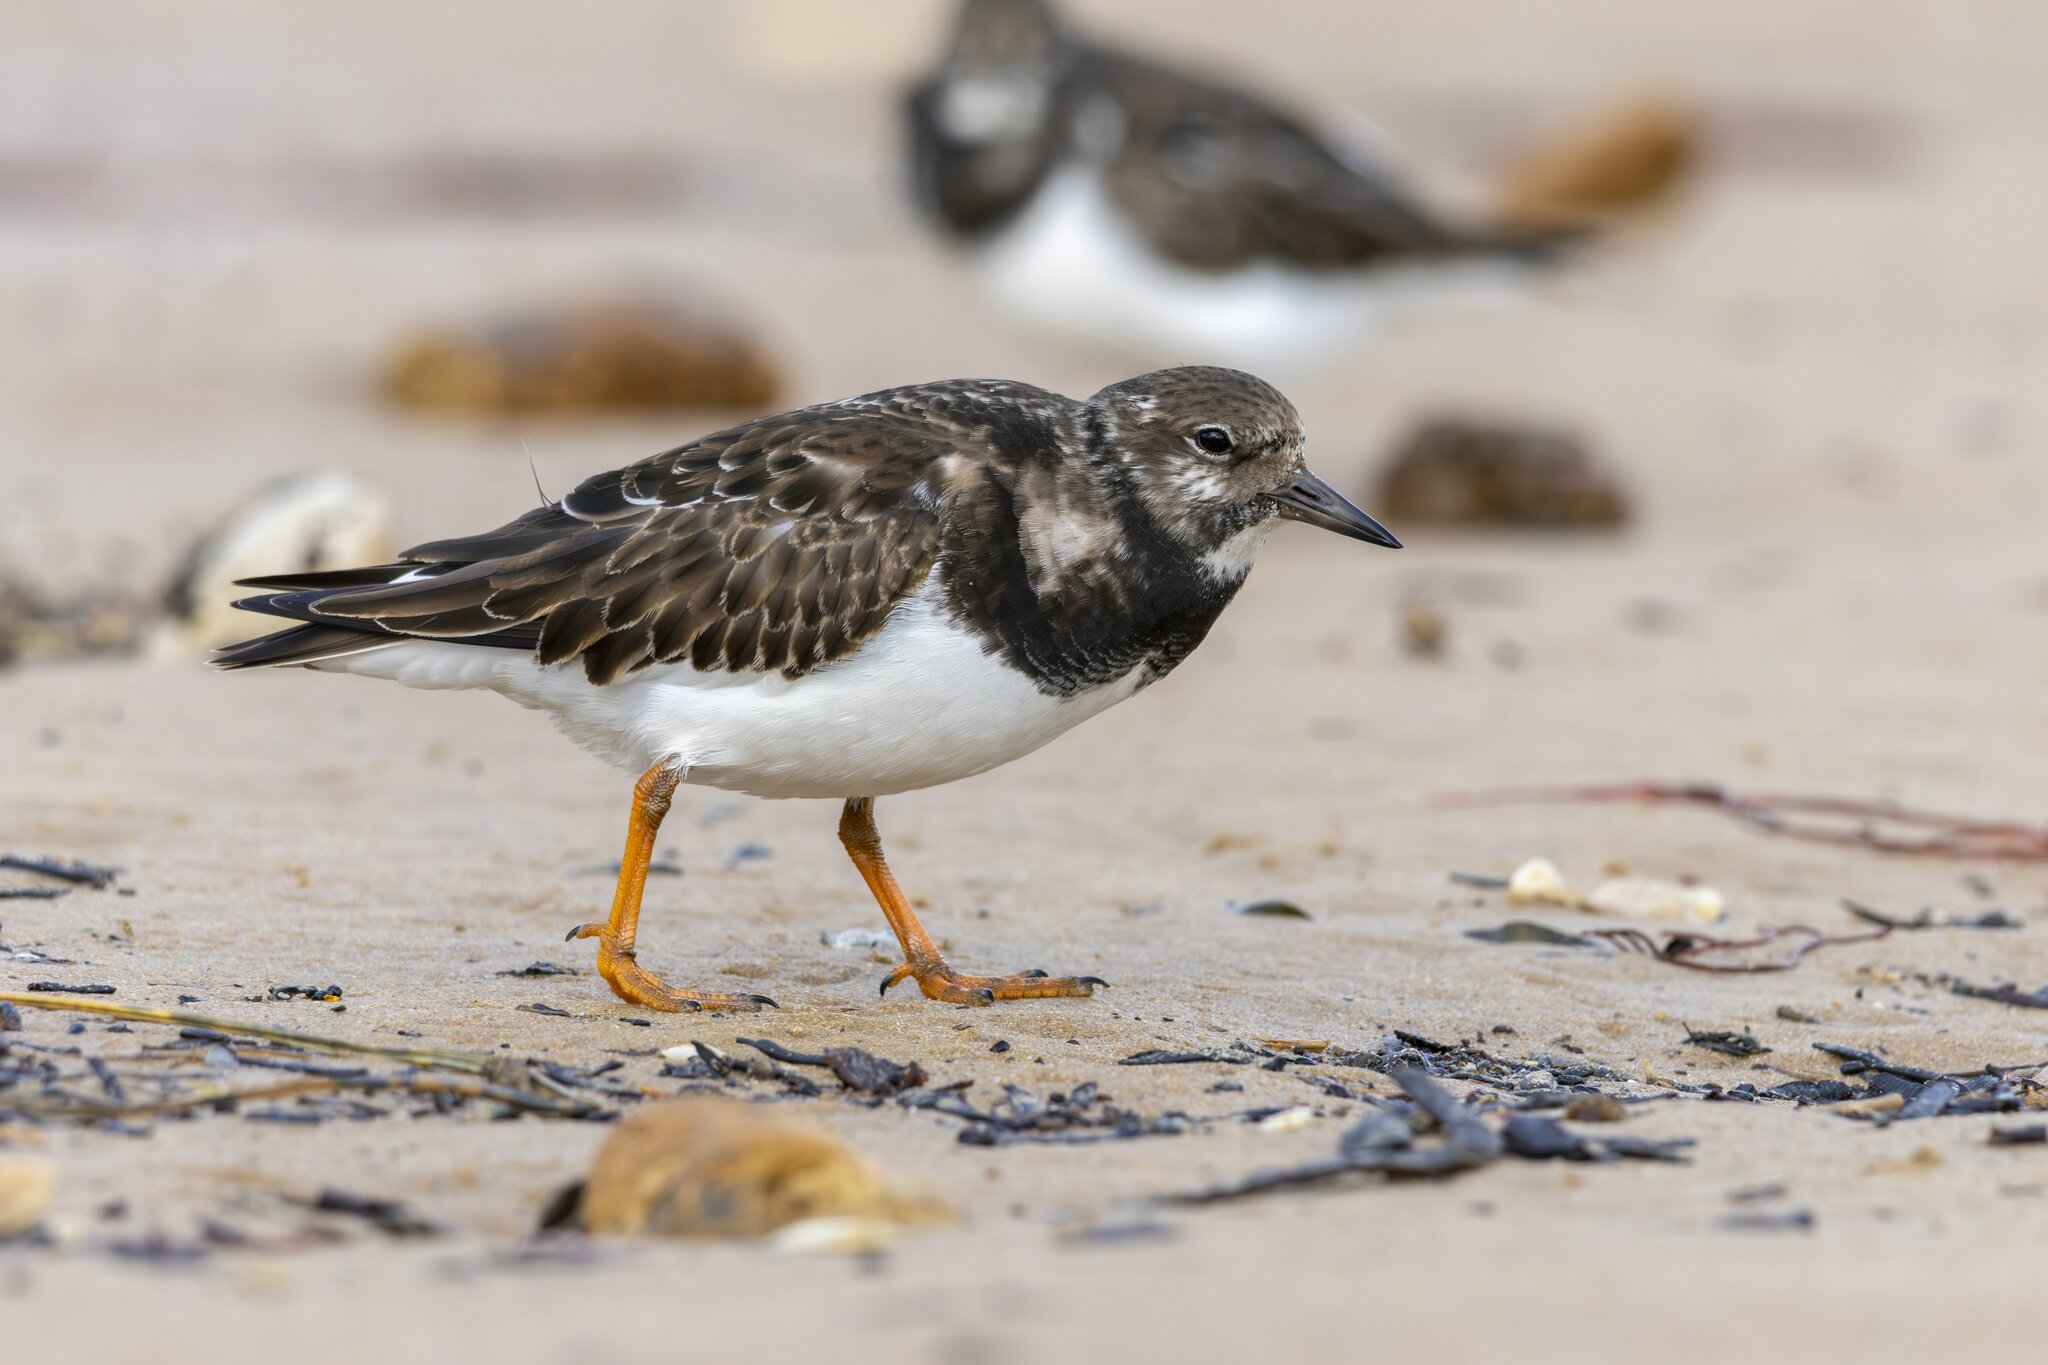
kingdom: Animalia
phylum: Chordata
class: Aves
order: Charadriiformes
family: Scolopacidae
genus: Arenaria
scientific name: Arenaria interpres
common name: Ruddy turnstone
